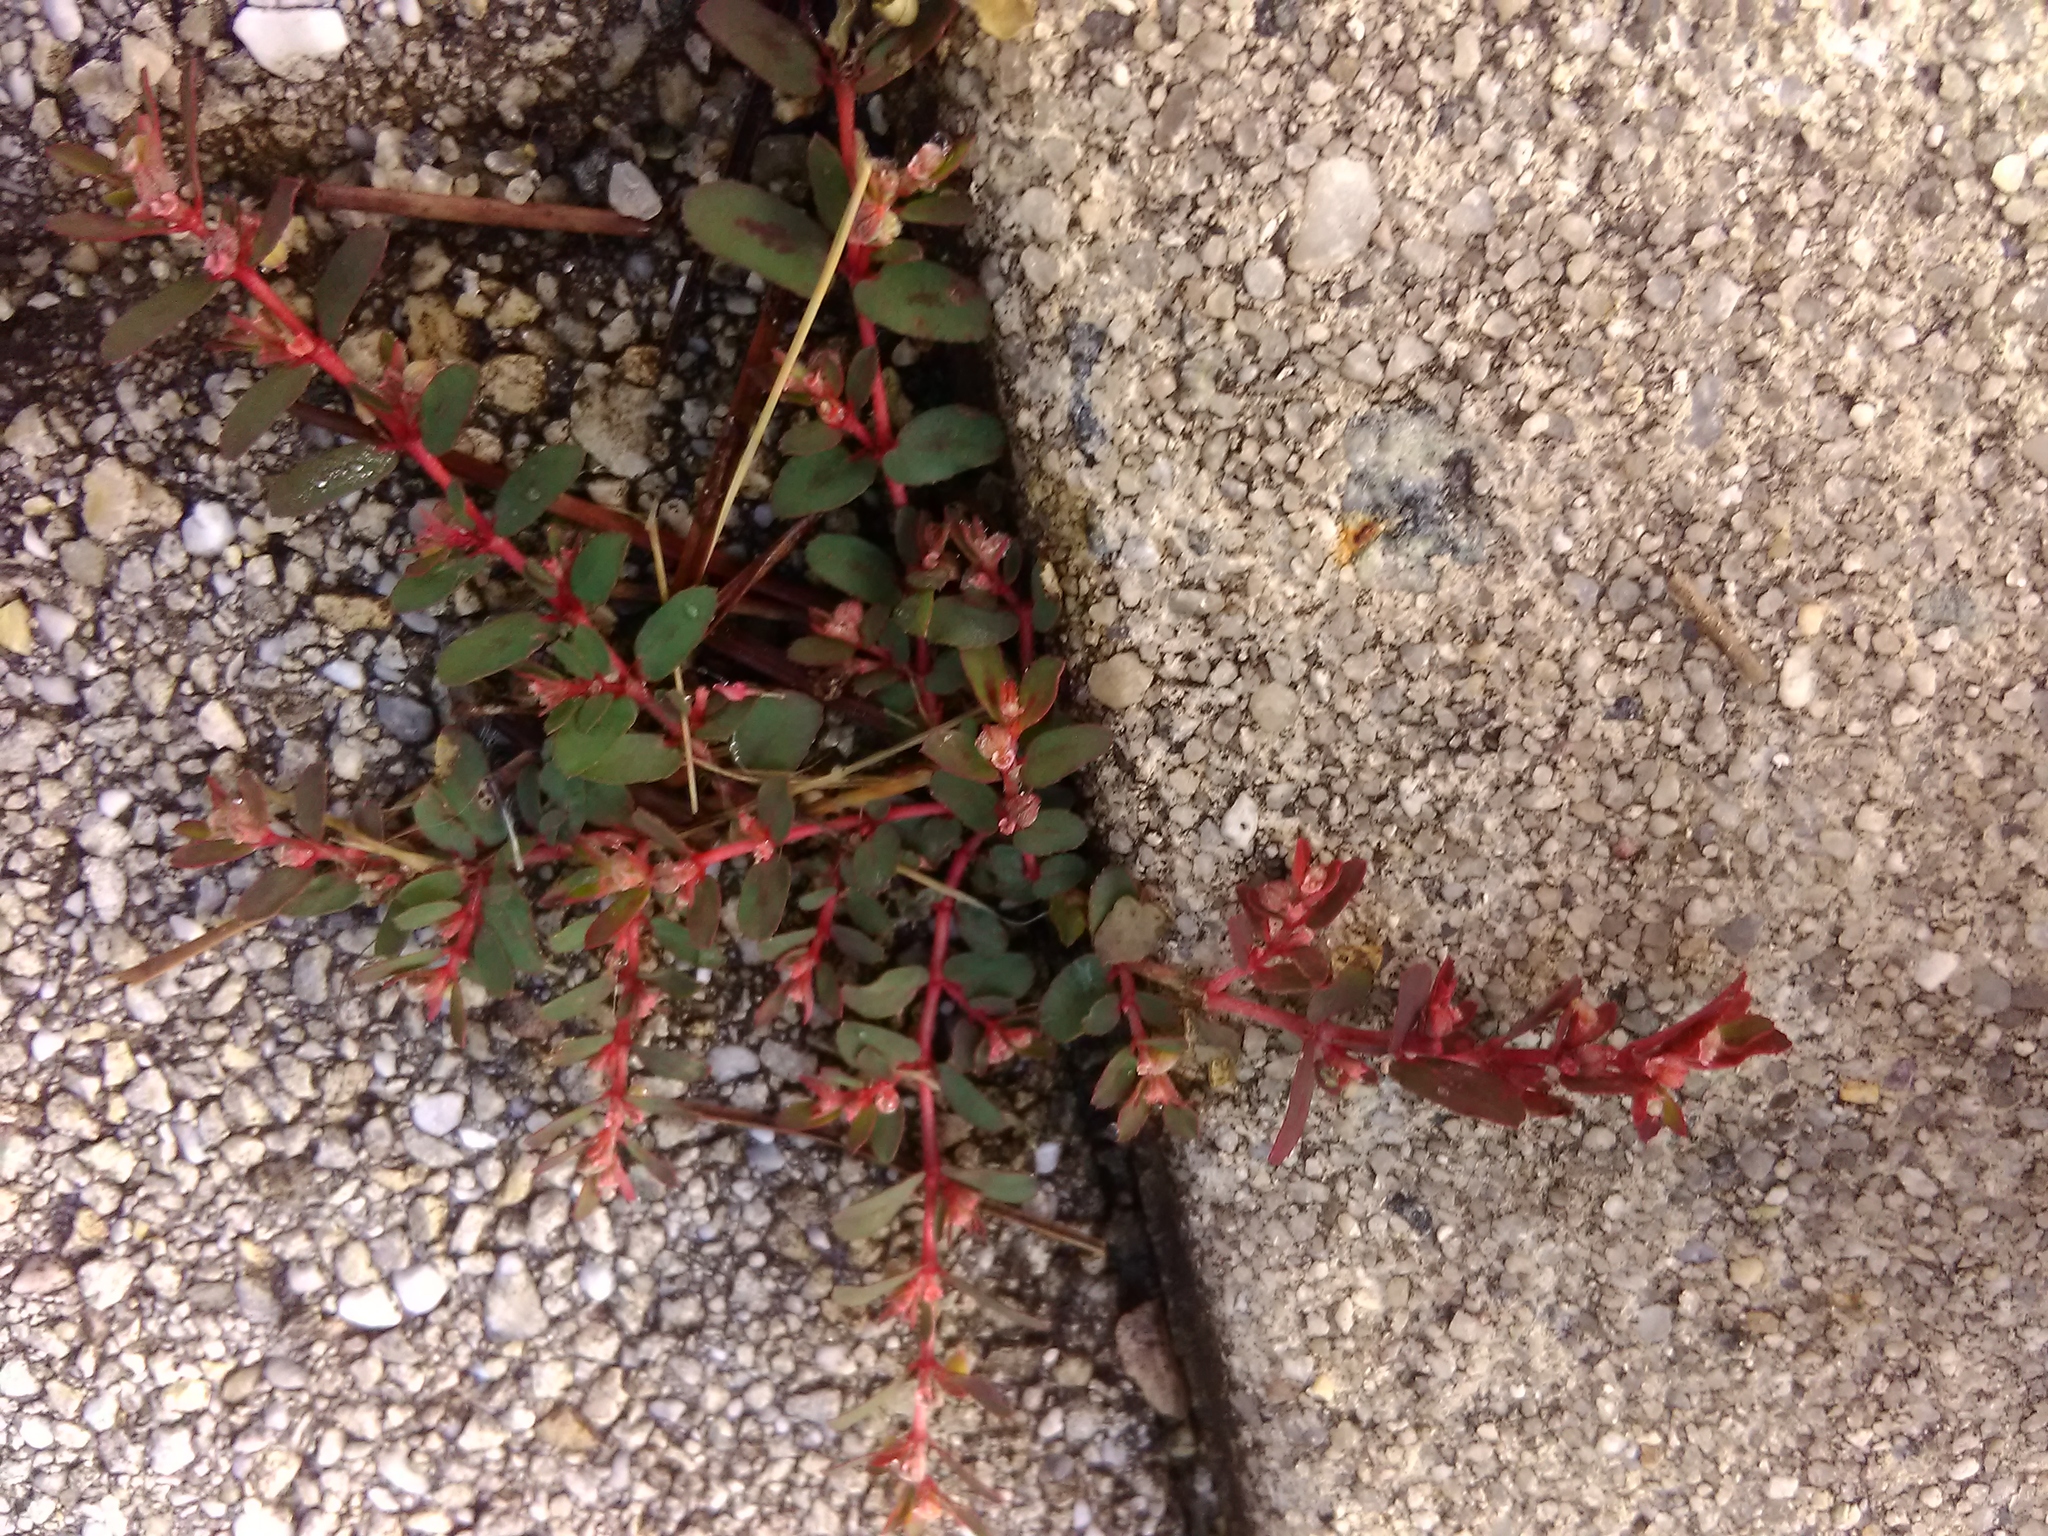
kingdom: Plantae
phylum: Tracheophyta
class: Magnoliopsida
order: Malpighiales
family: Euphorbiaceae
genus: Euphorbia
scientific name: Euphorbia maculata
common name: Spotted spurge
